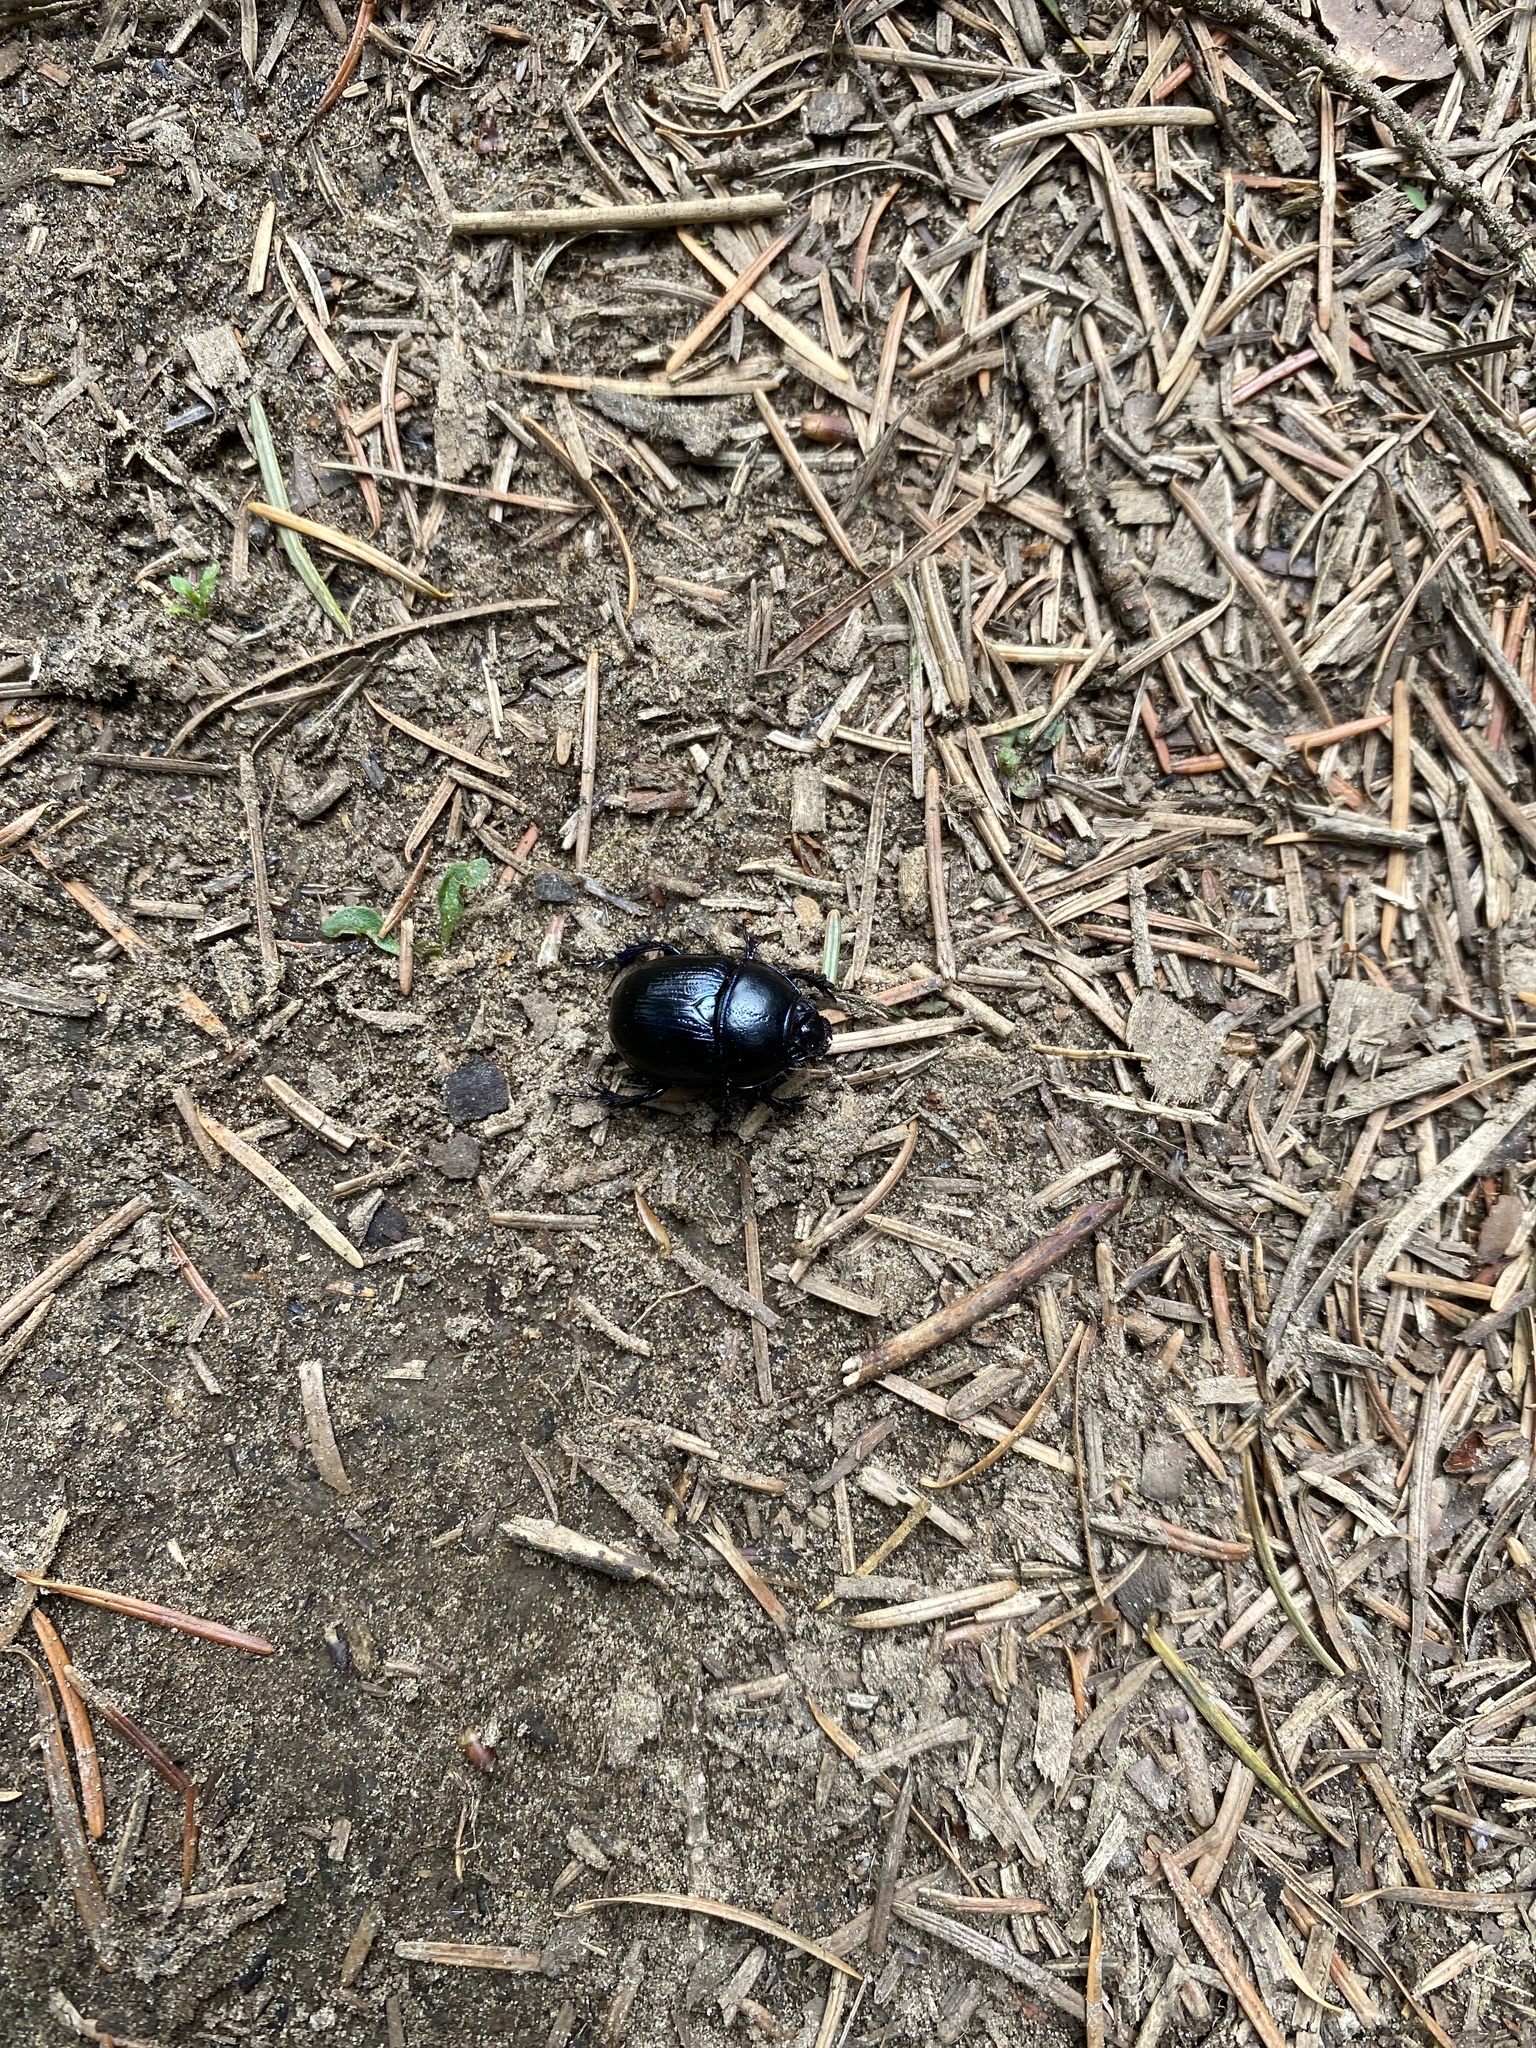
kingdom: Animalia
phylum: Arthropoda
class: Insecta
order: Coleoptera
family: Geotrupidae
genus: Anoplotrupes
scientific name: Anoplotrupes stercorosus
